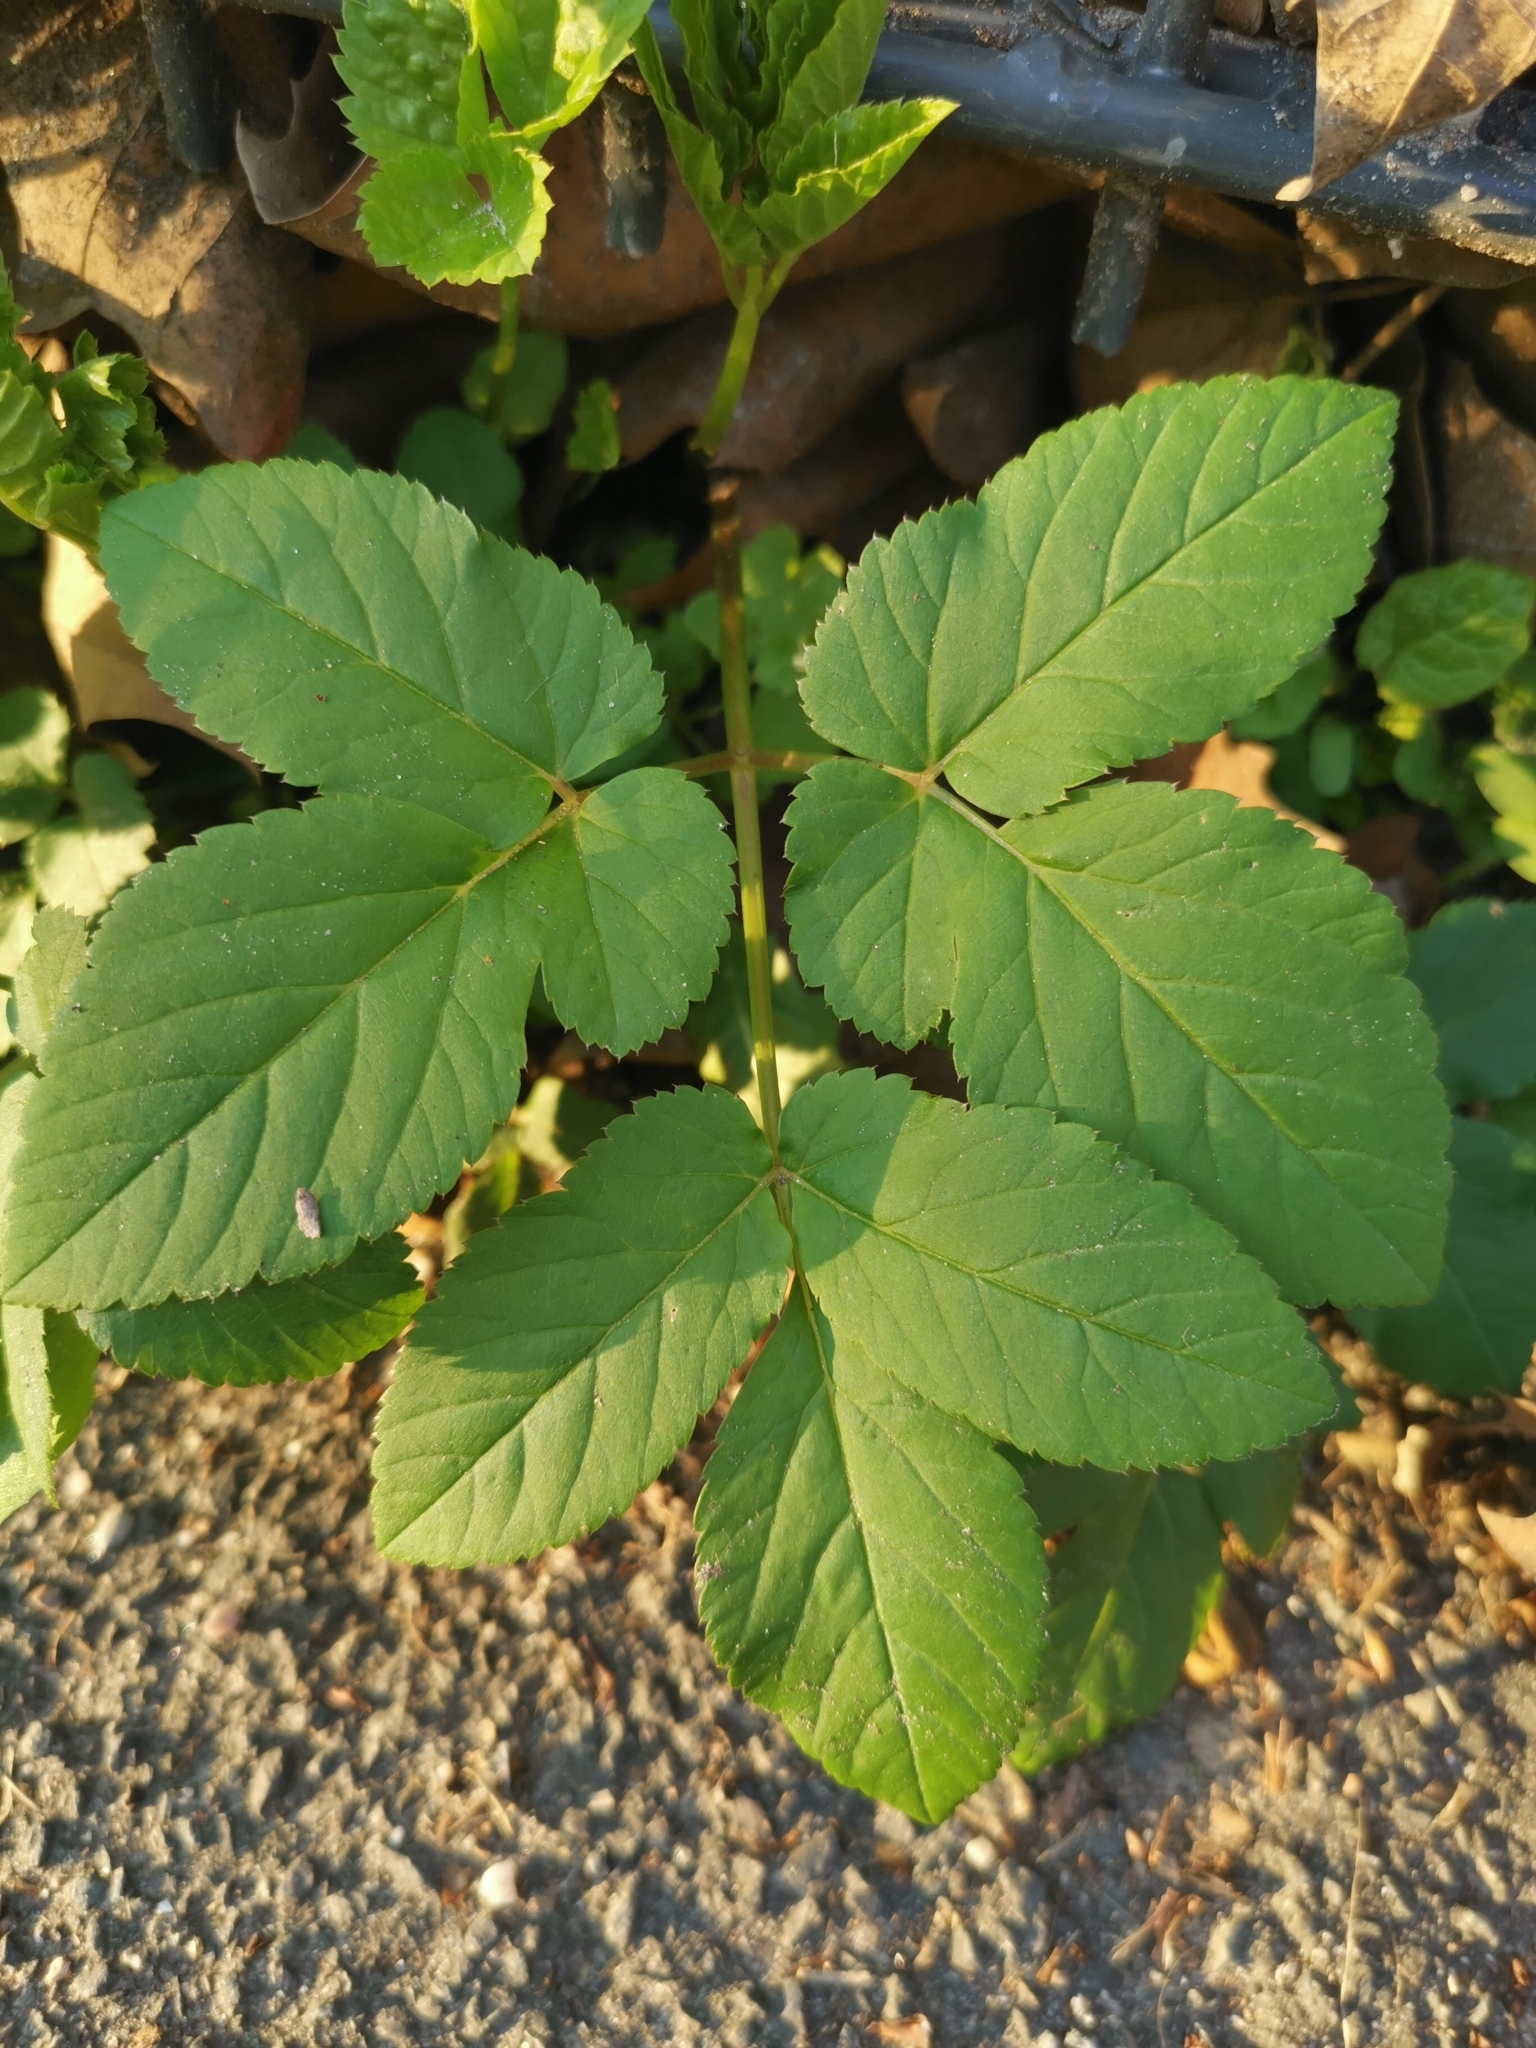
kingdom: Plantae
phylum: Tracheophyta
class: Magnoliopsida
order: Apiales
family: Apiaceae
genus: Aegopodium
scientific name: Aegopodium podagraria
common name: Ground-elder
